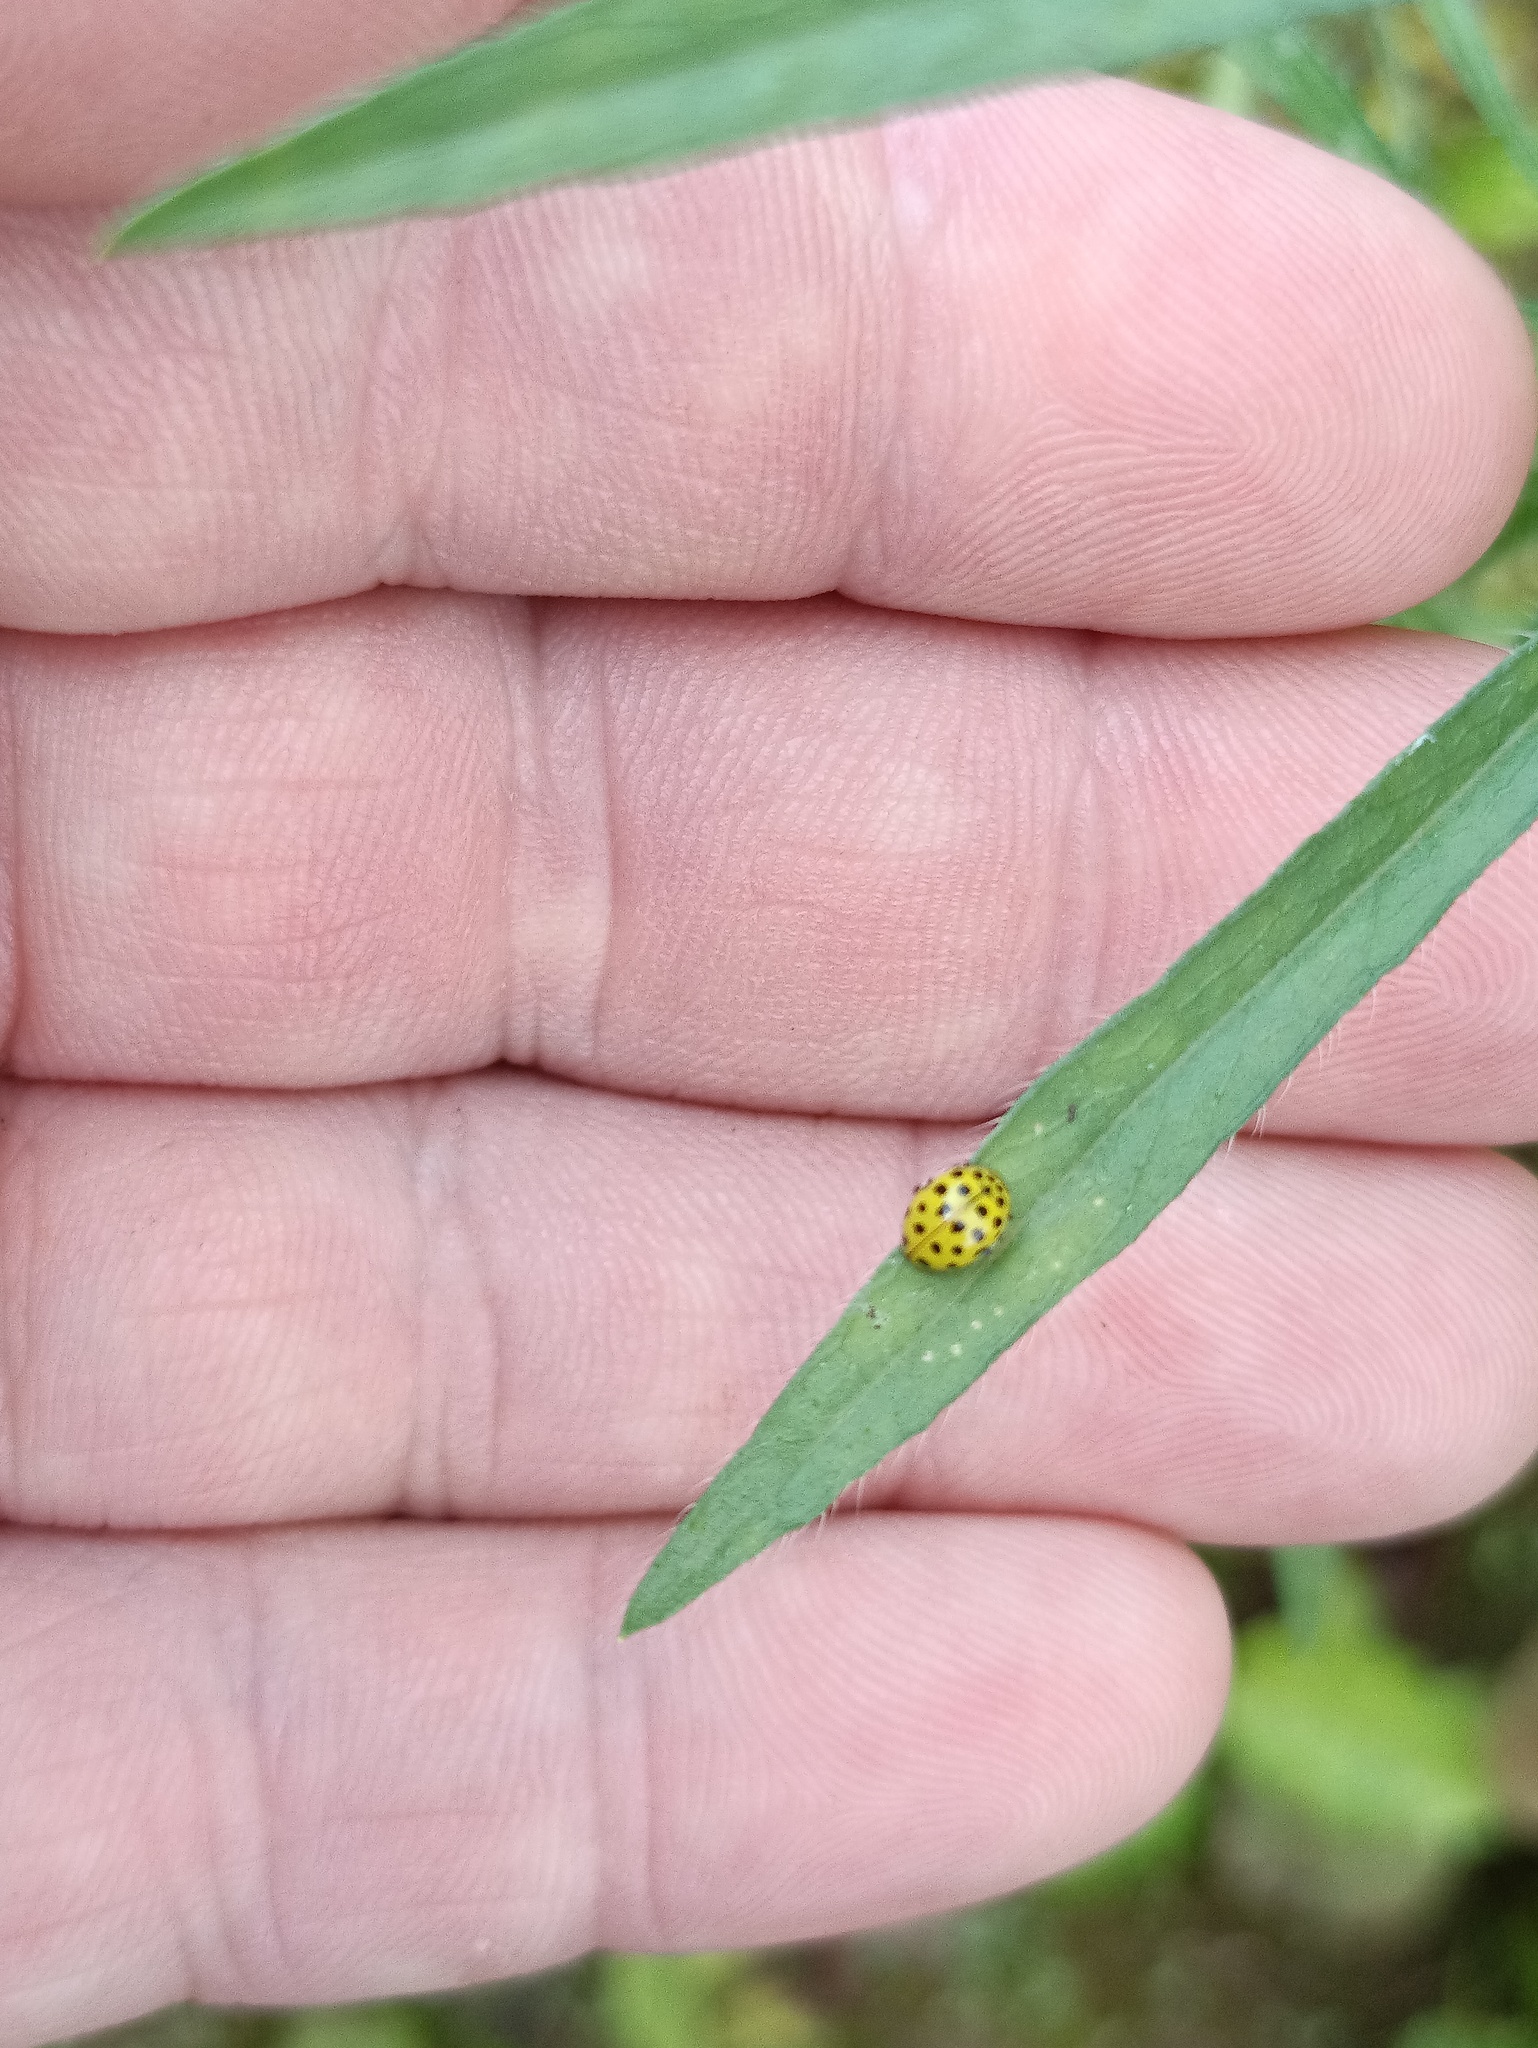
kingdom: Animalia
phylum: Arthropoda
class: Insecta
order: Coleoptera
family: Coccinellidae
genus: Psyllobora
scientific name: Psyllobora vigintiduopunctata
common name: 22-spot ladybird
